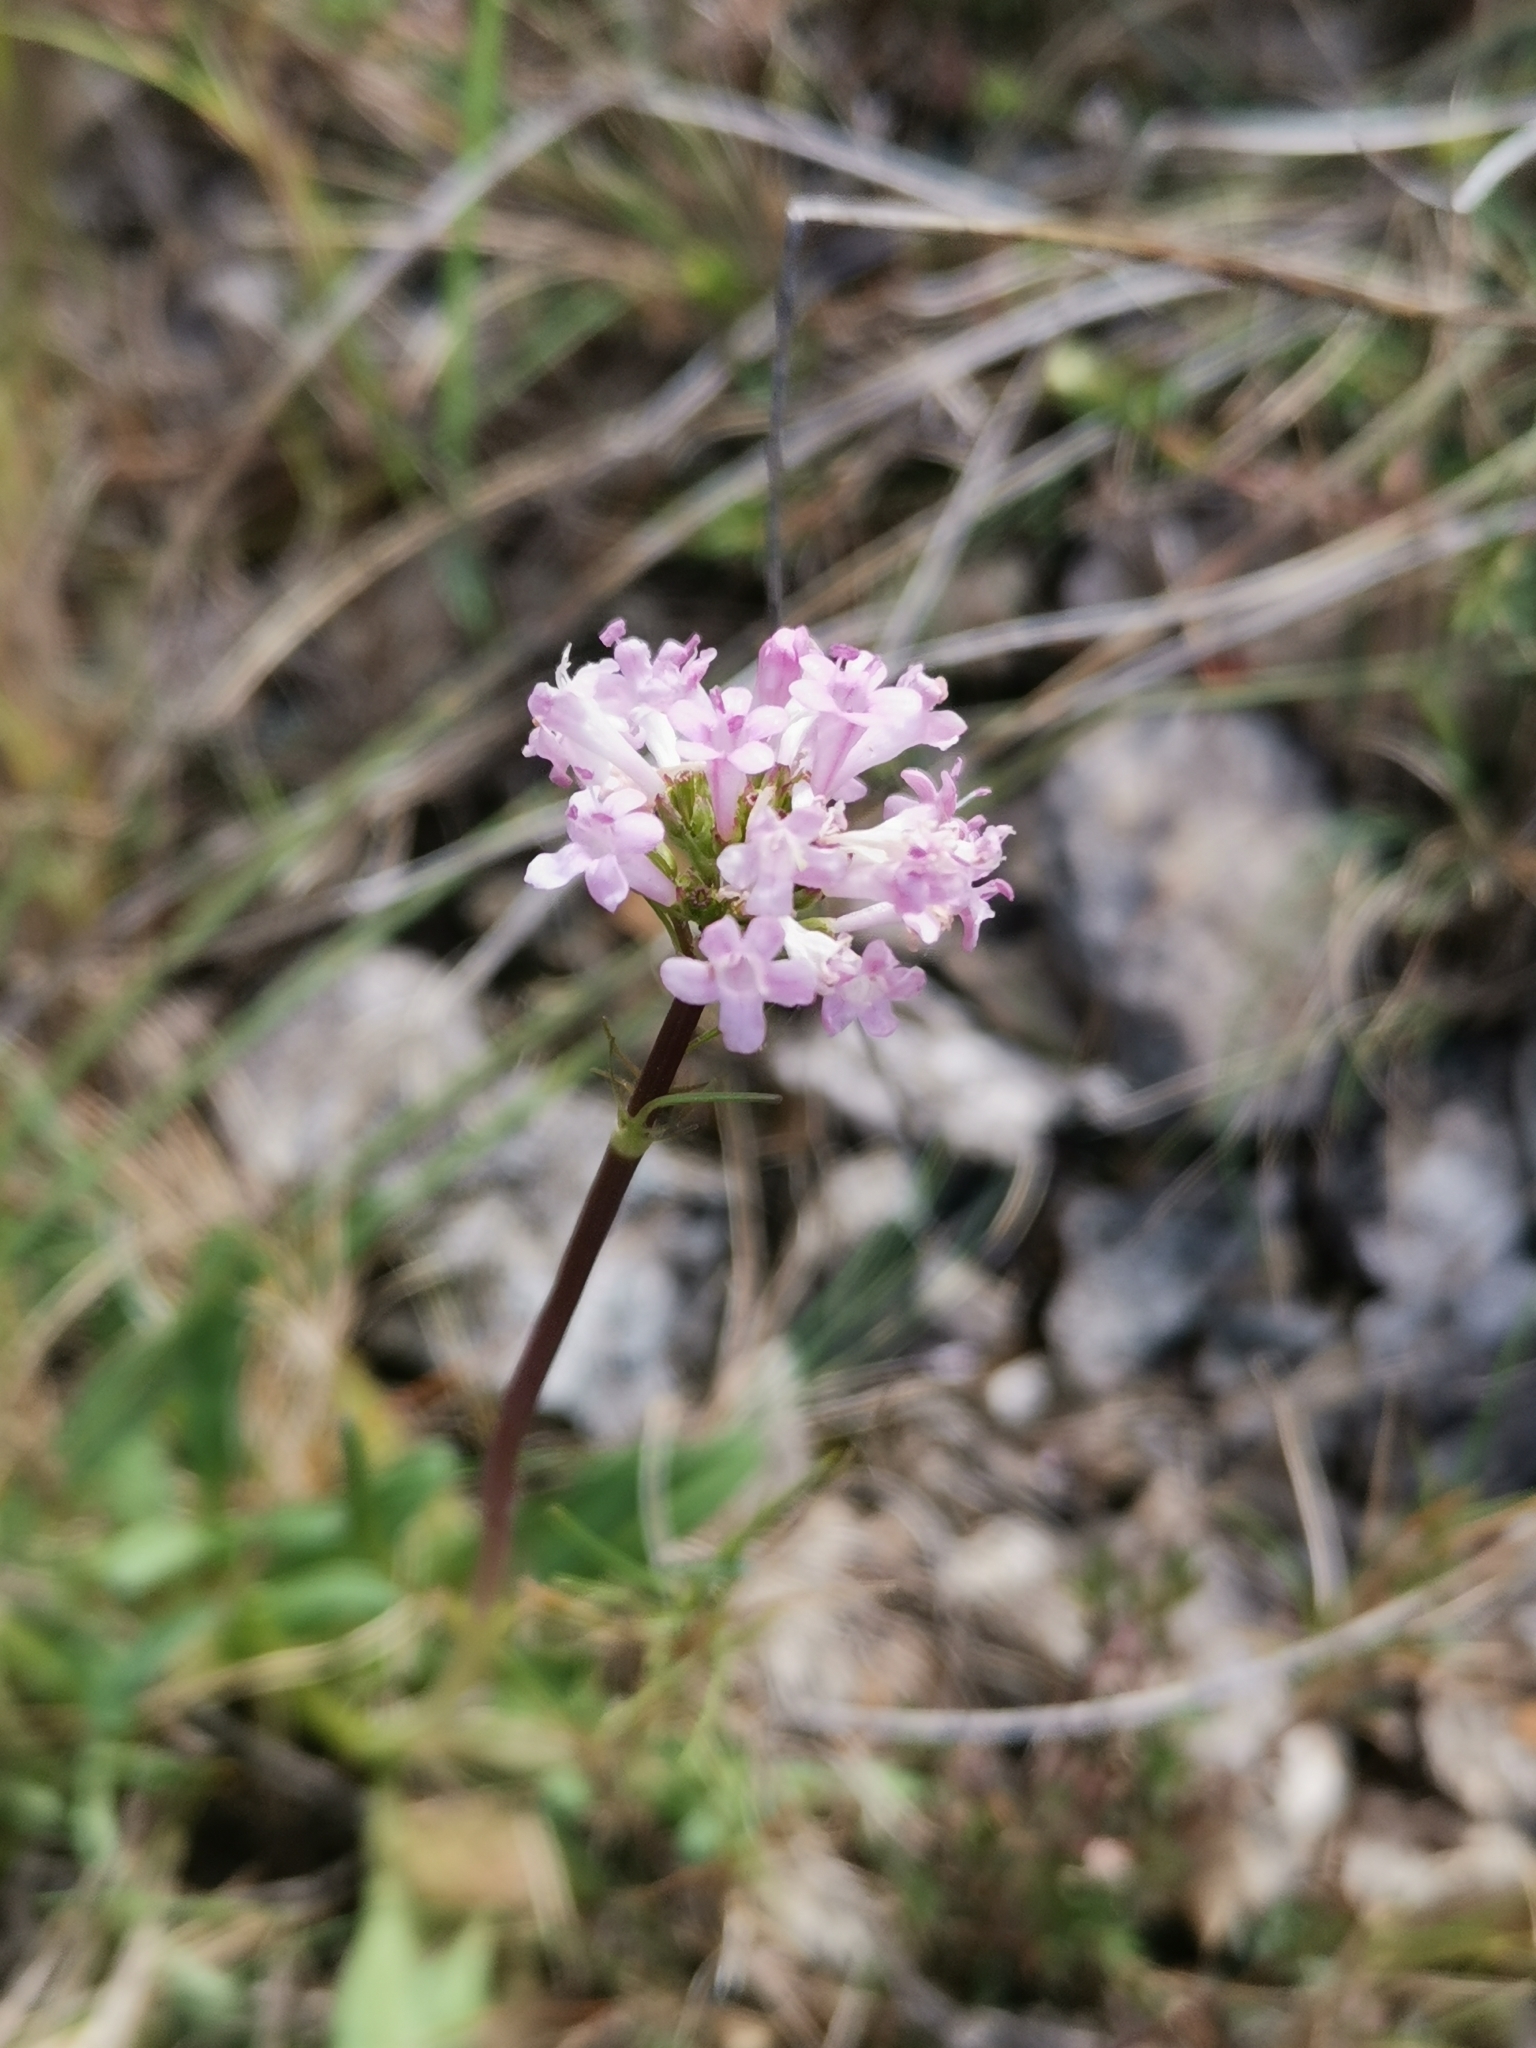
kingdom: Plantae
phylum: Tracheophyta
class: Magnoliopsida
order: Dipsacales
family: Caprifoliaceae
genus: Valeriana
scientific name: Valeriana tuberosa
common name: Tuberous valerian
